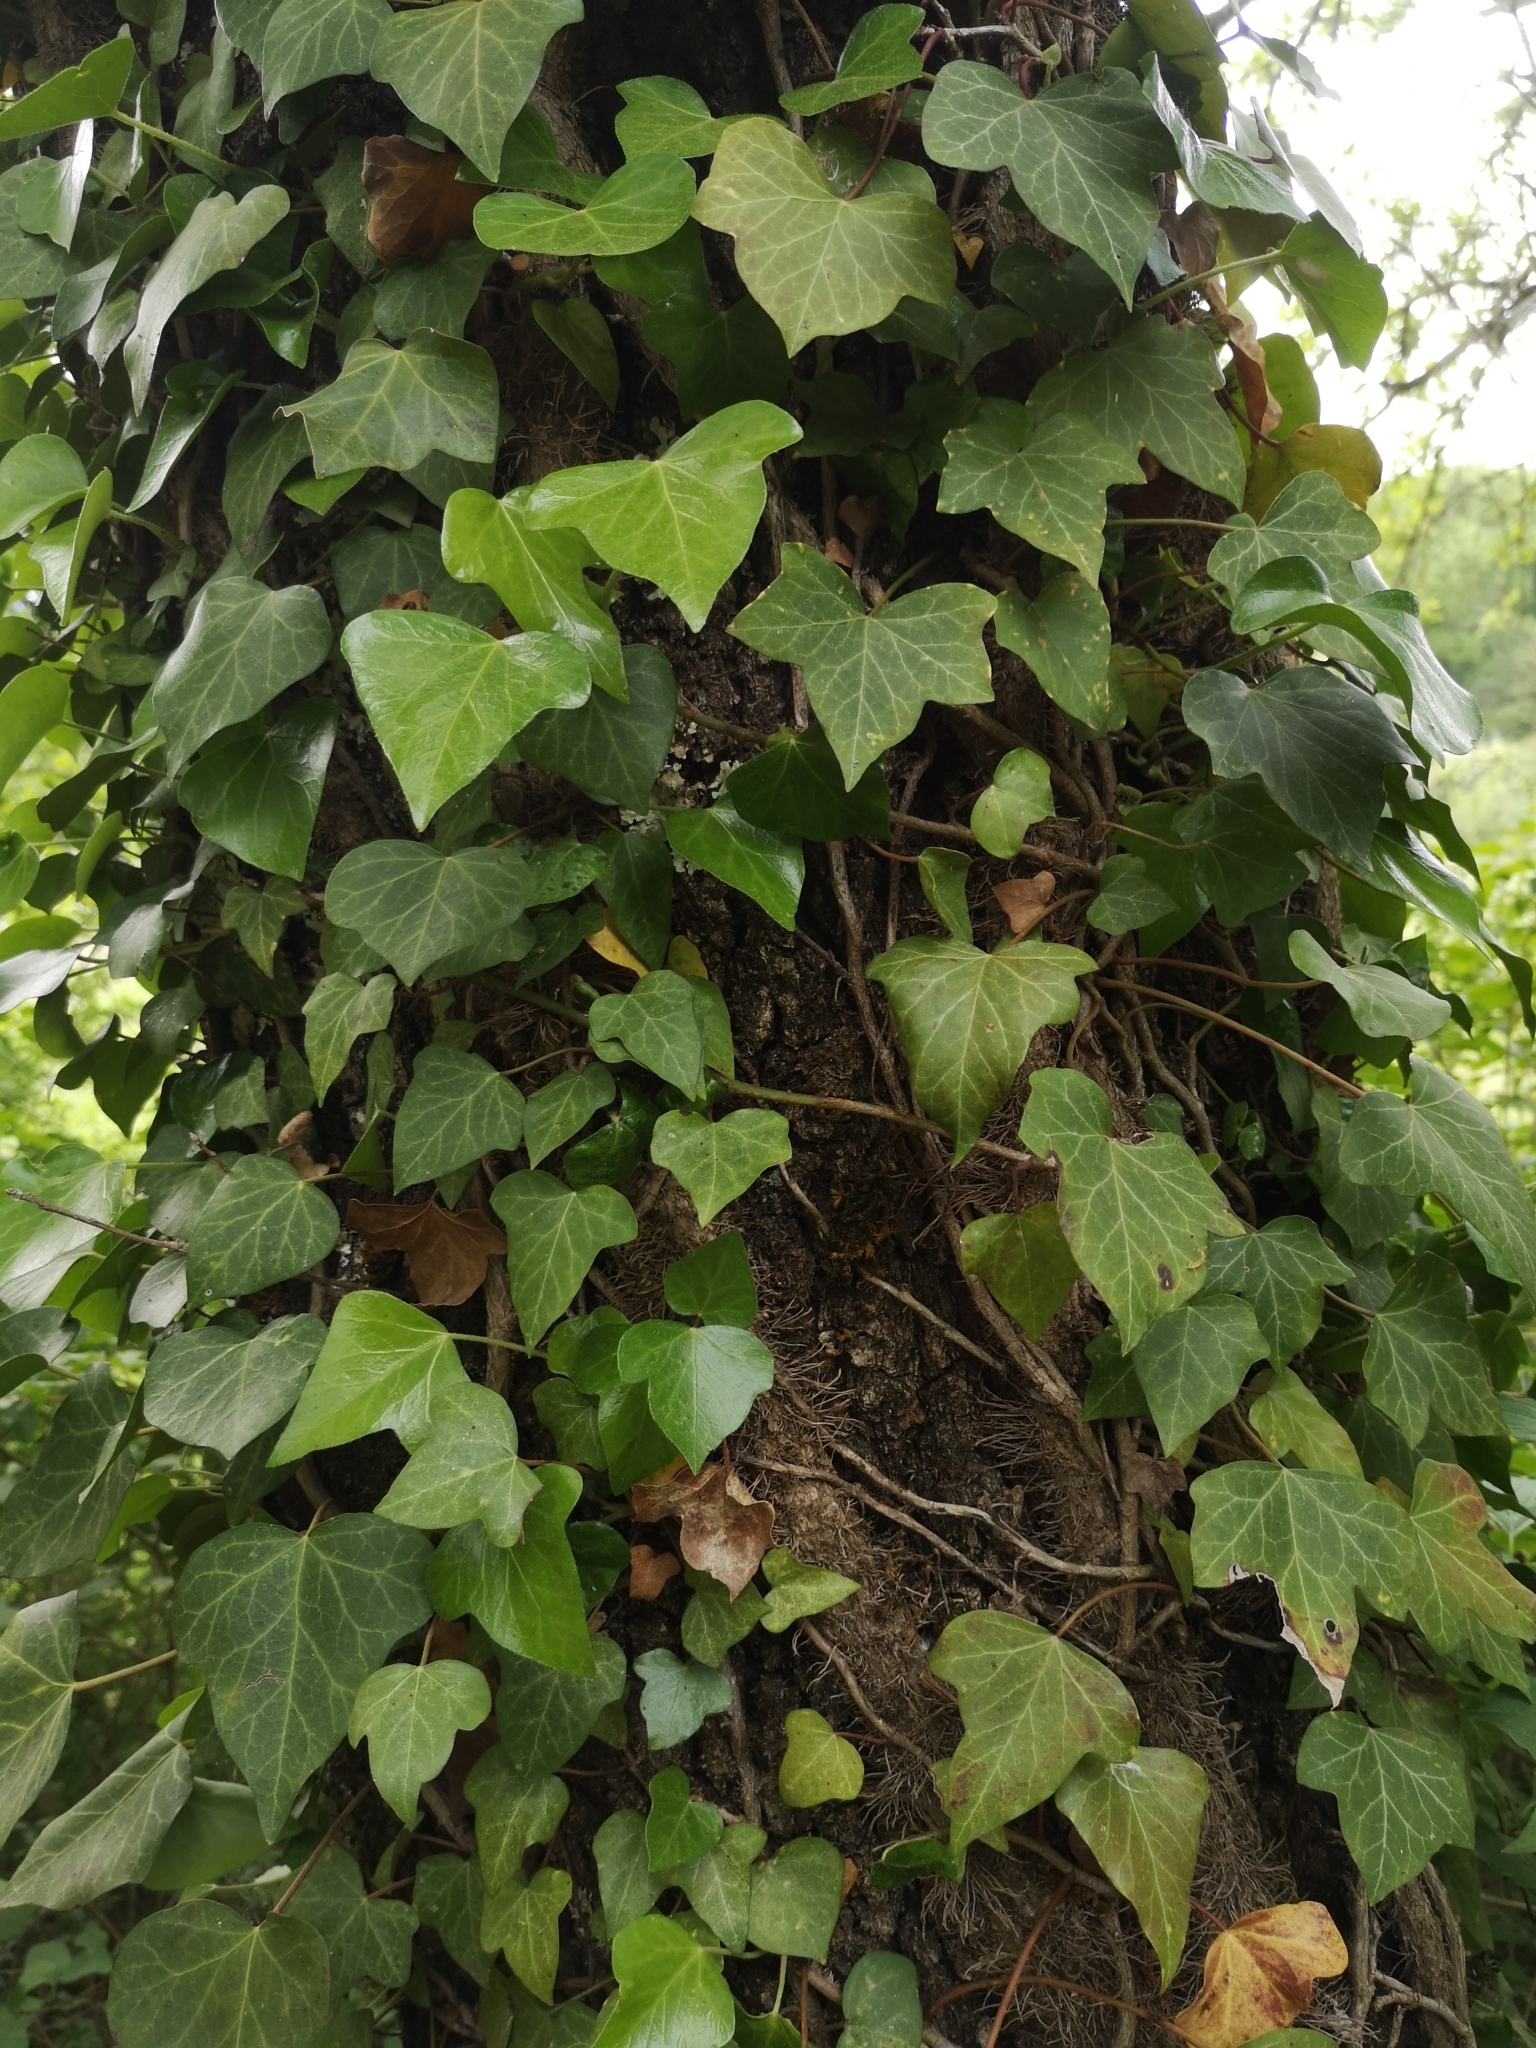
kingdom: Plantae
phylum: Tracheophyta
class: Magnoliopsida
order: Apiales
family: Araliaceae
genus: Hedera
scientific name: Hedera helix
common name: Ivy
